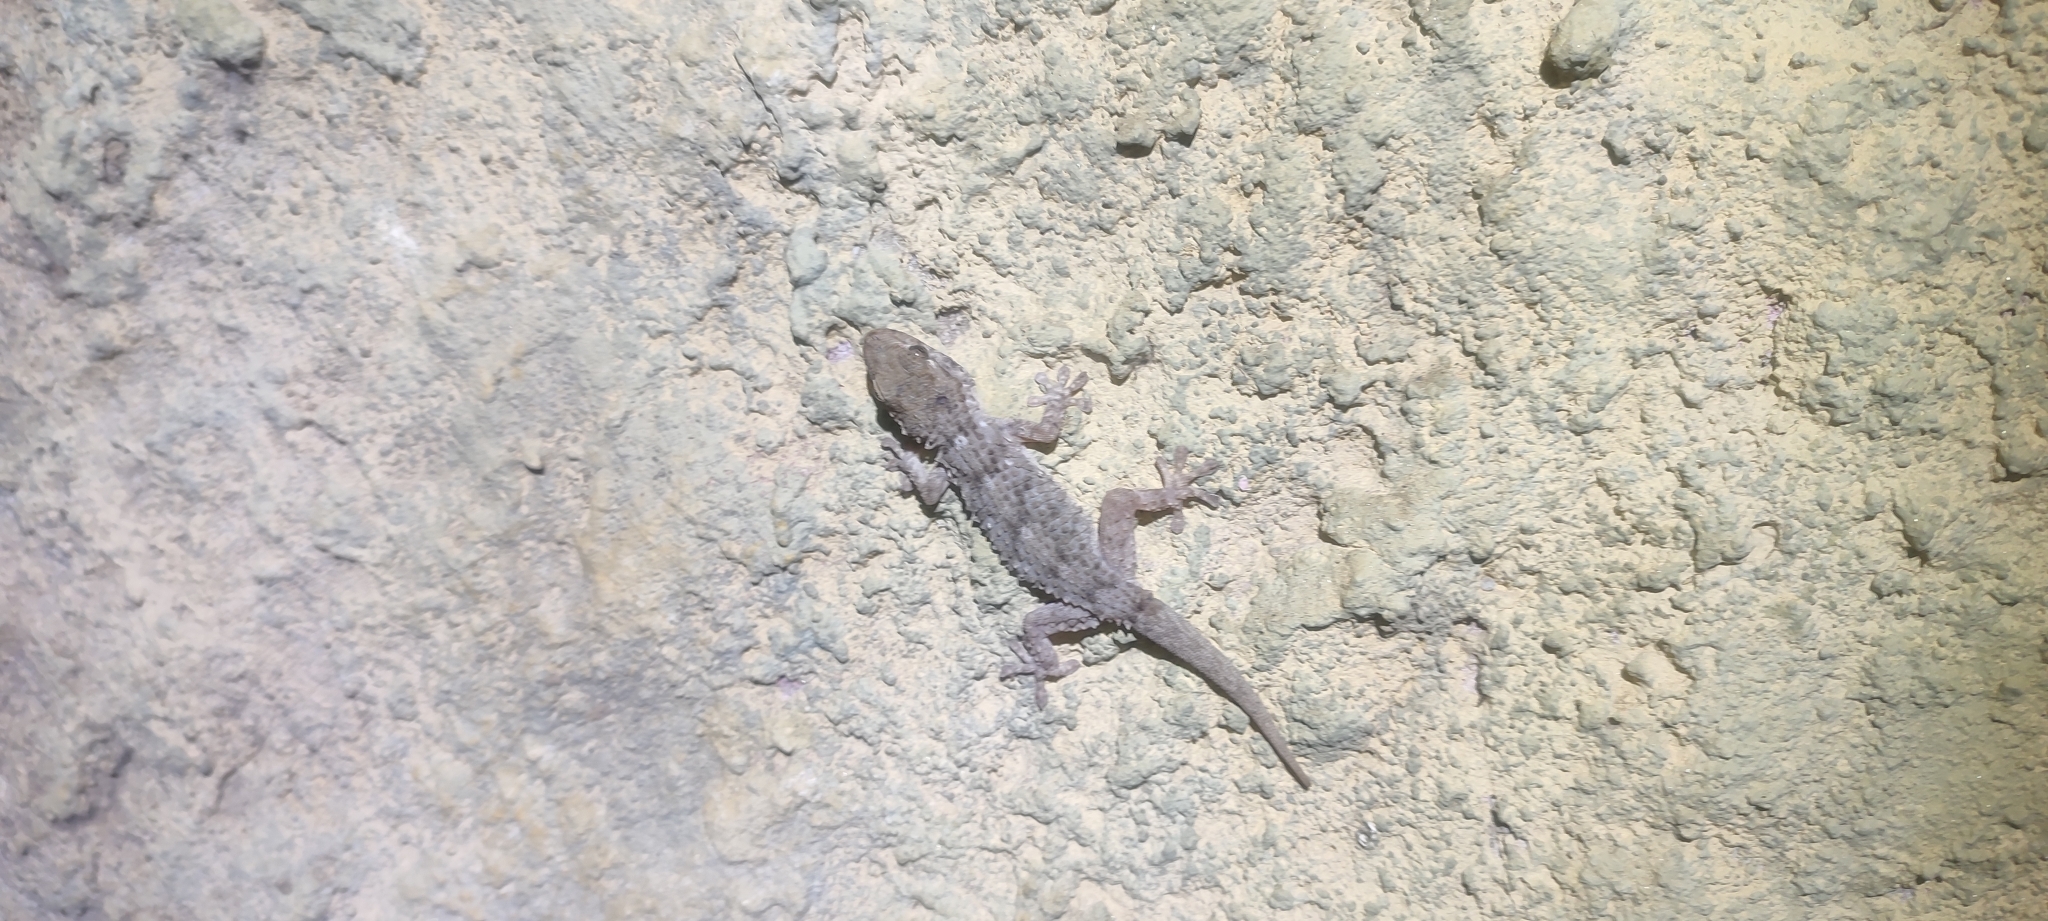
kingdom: Animalia
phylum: Chordata
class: Squamata
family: Phyllodactylidae
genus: Tarentola
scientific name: Tarentola mauritanica
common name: Moorish gecko
